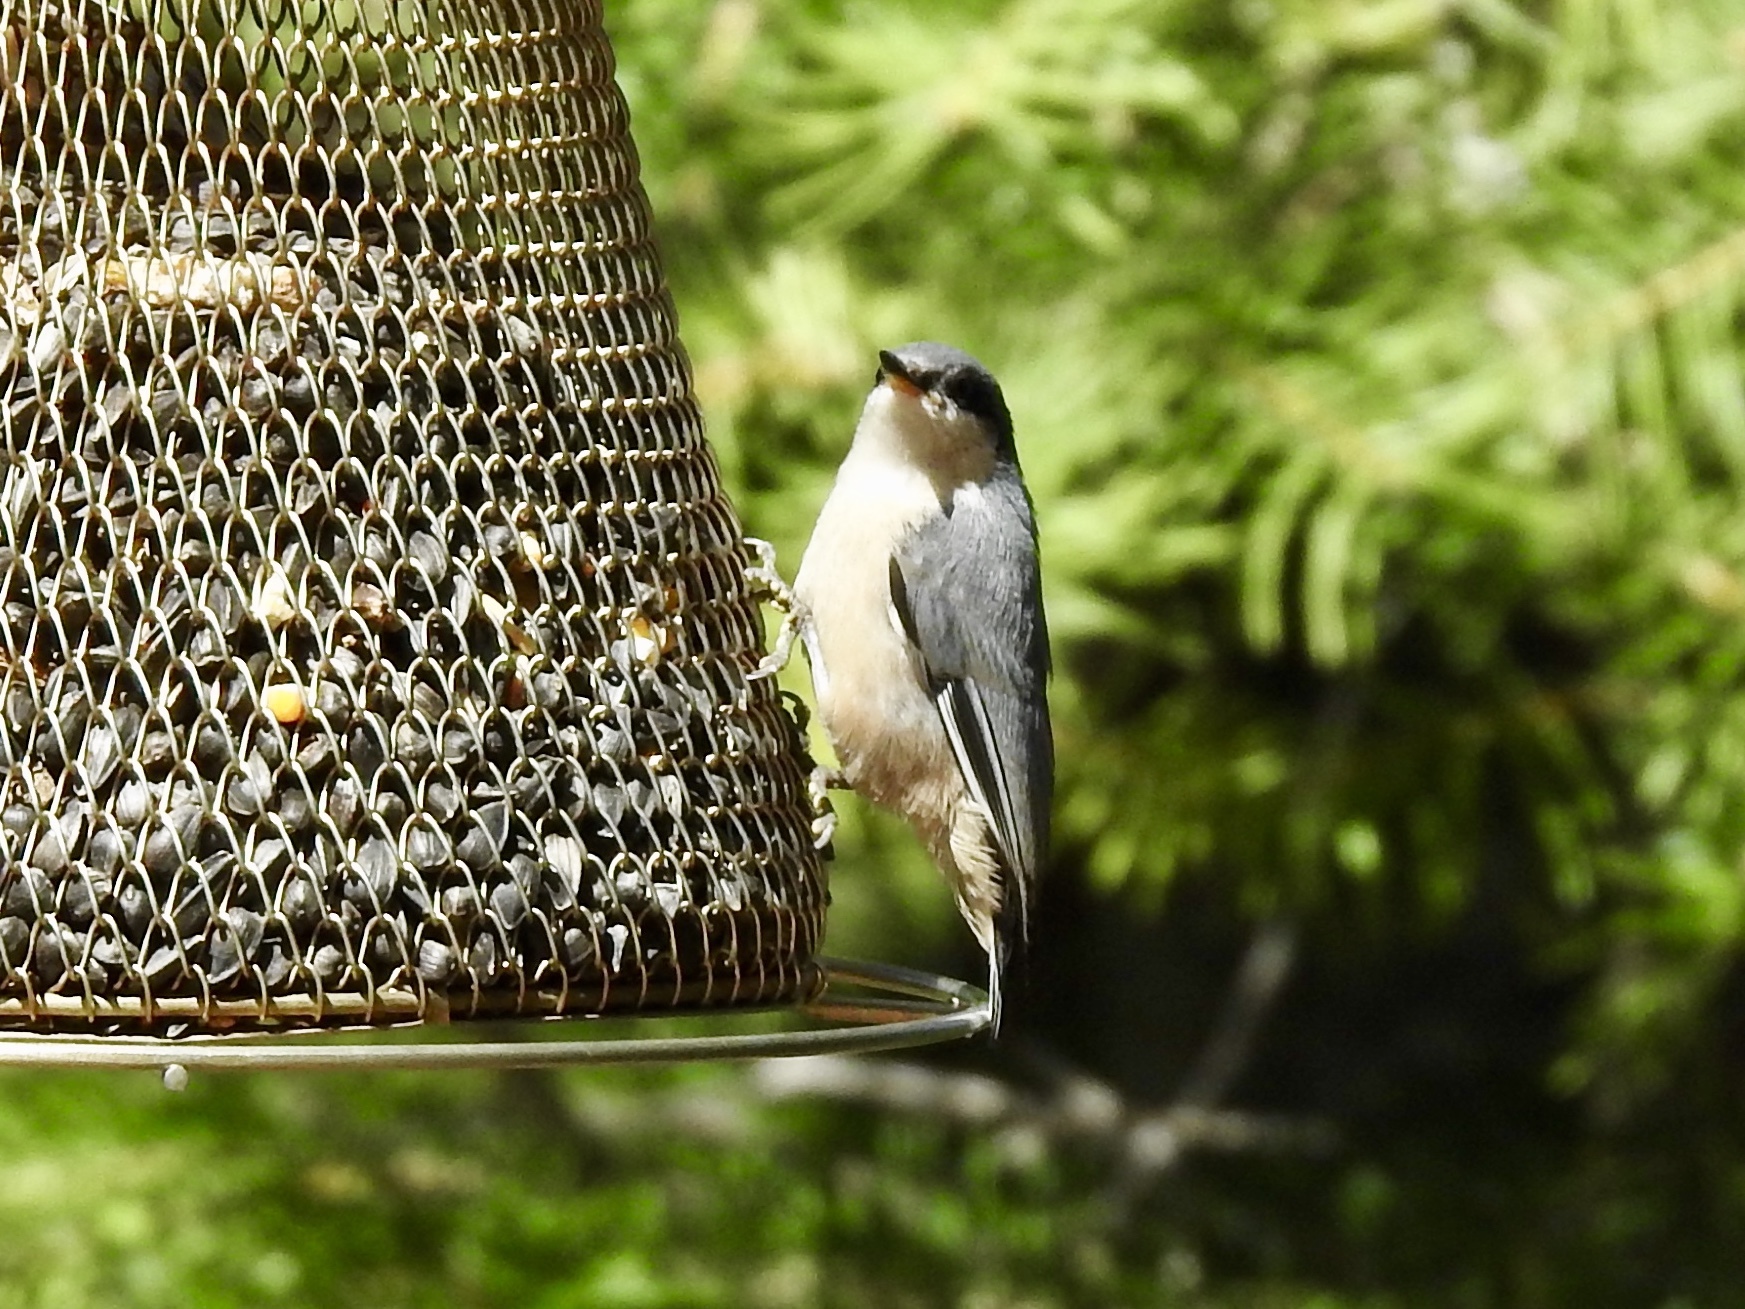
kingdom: Animalia
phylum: Chordata
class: Aves
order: Passeriformes
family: Sittidae
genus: Sitta
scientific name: Sitta pygmaea
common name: Pygmy nuthatch
